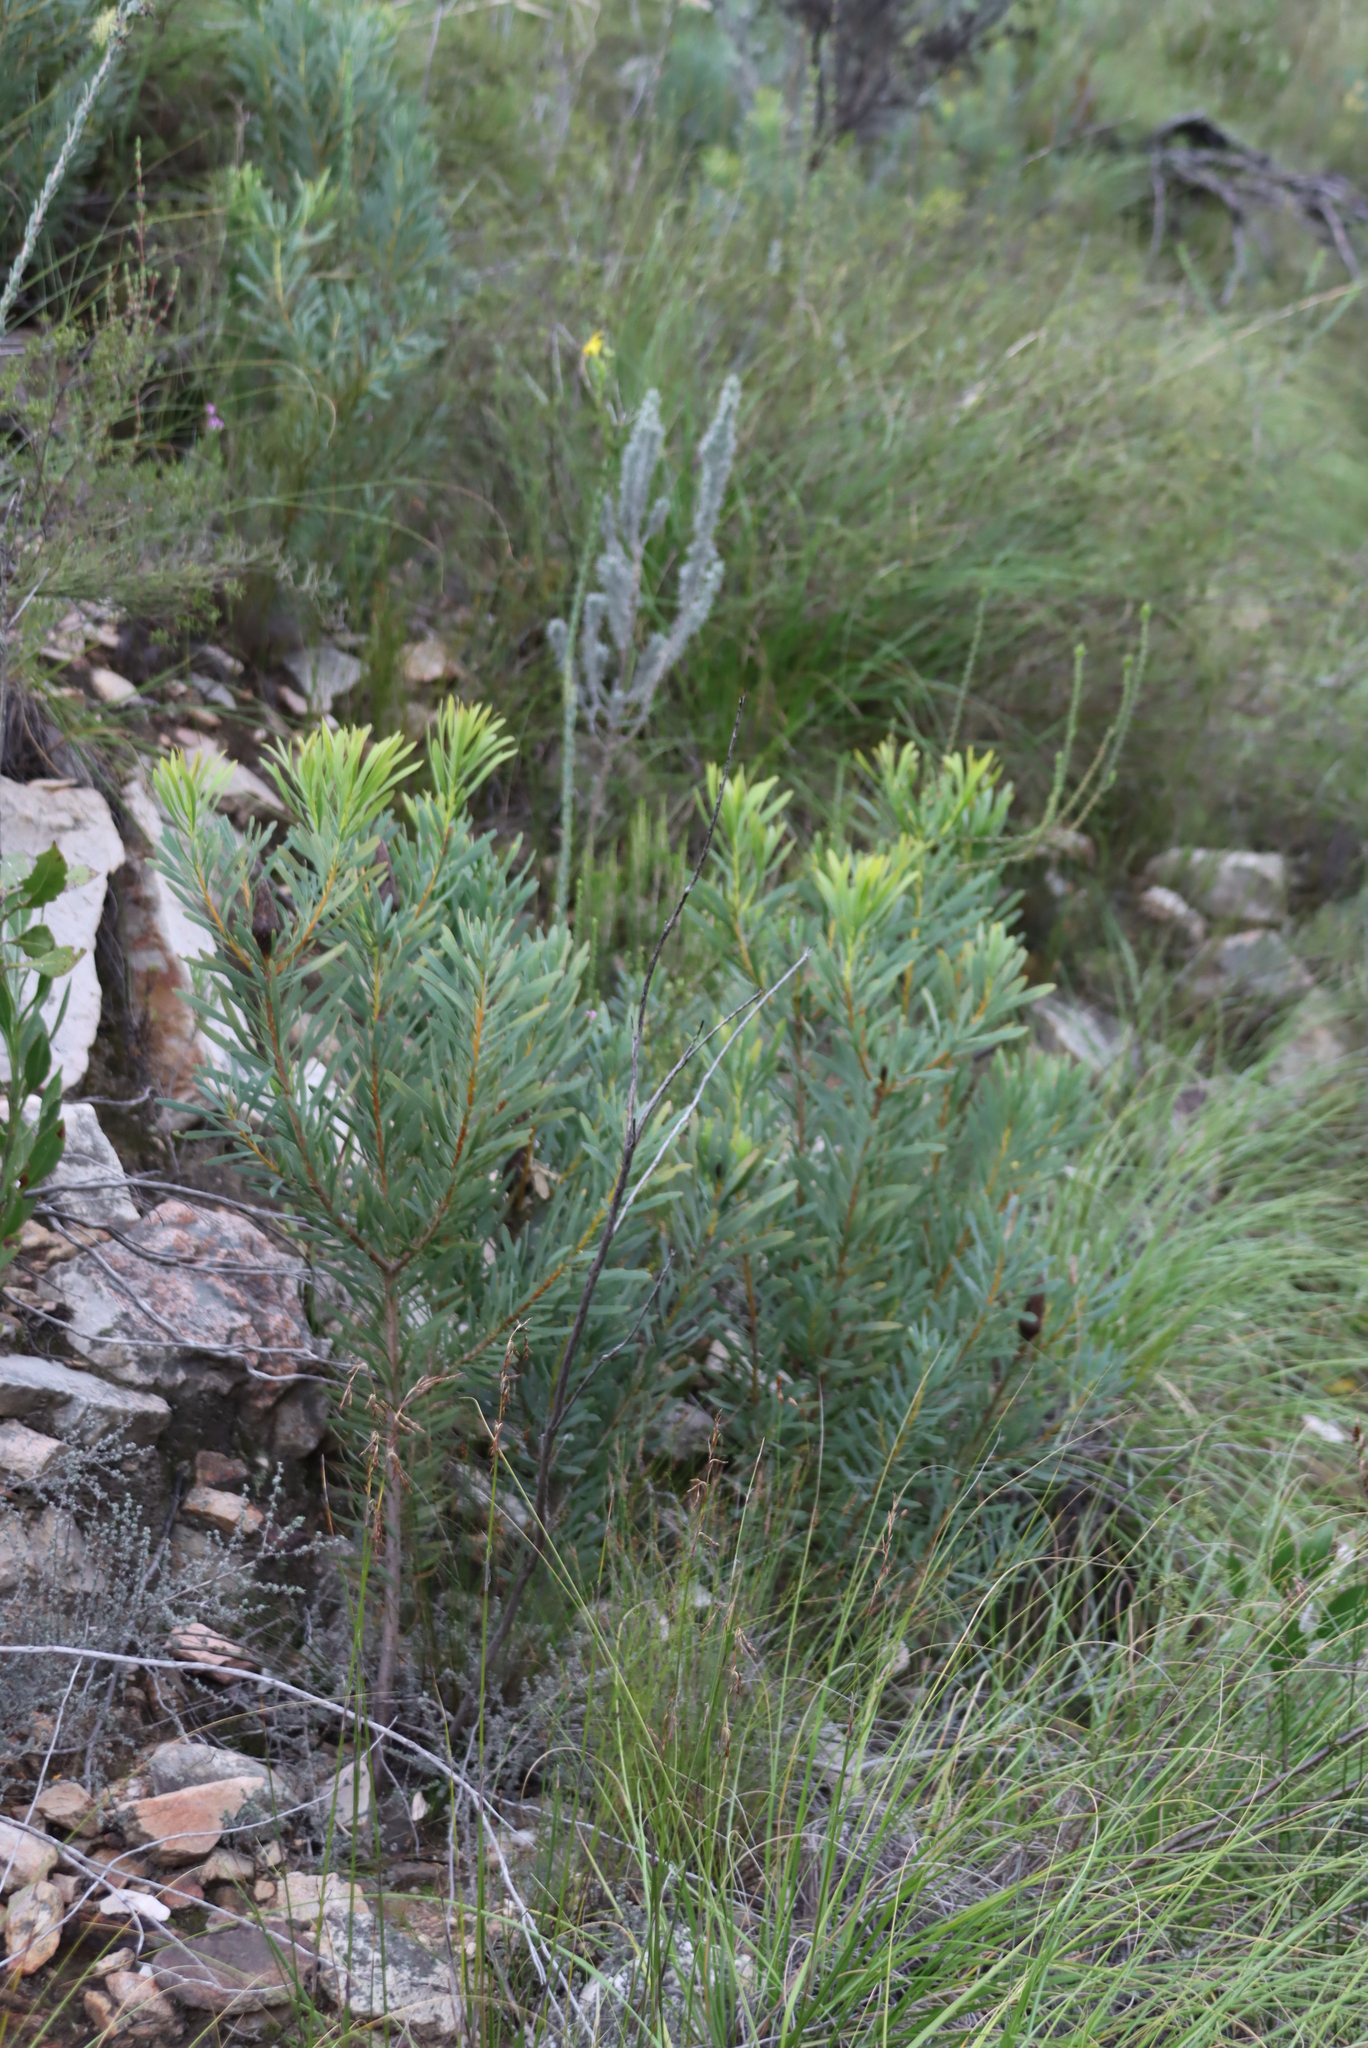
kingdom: Plantae
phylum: Tracheophyta
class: Magnoliopsida
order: Proteales
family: Proteaceae
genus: Protea
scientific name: Protea repens
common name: Sugarbush
